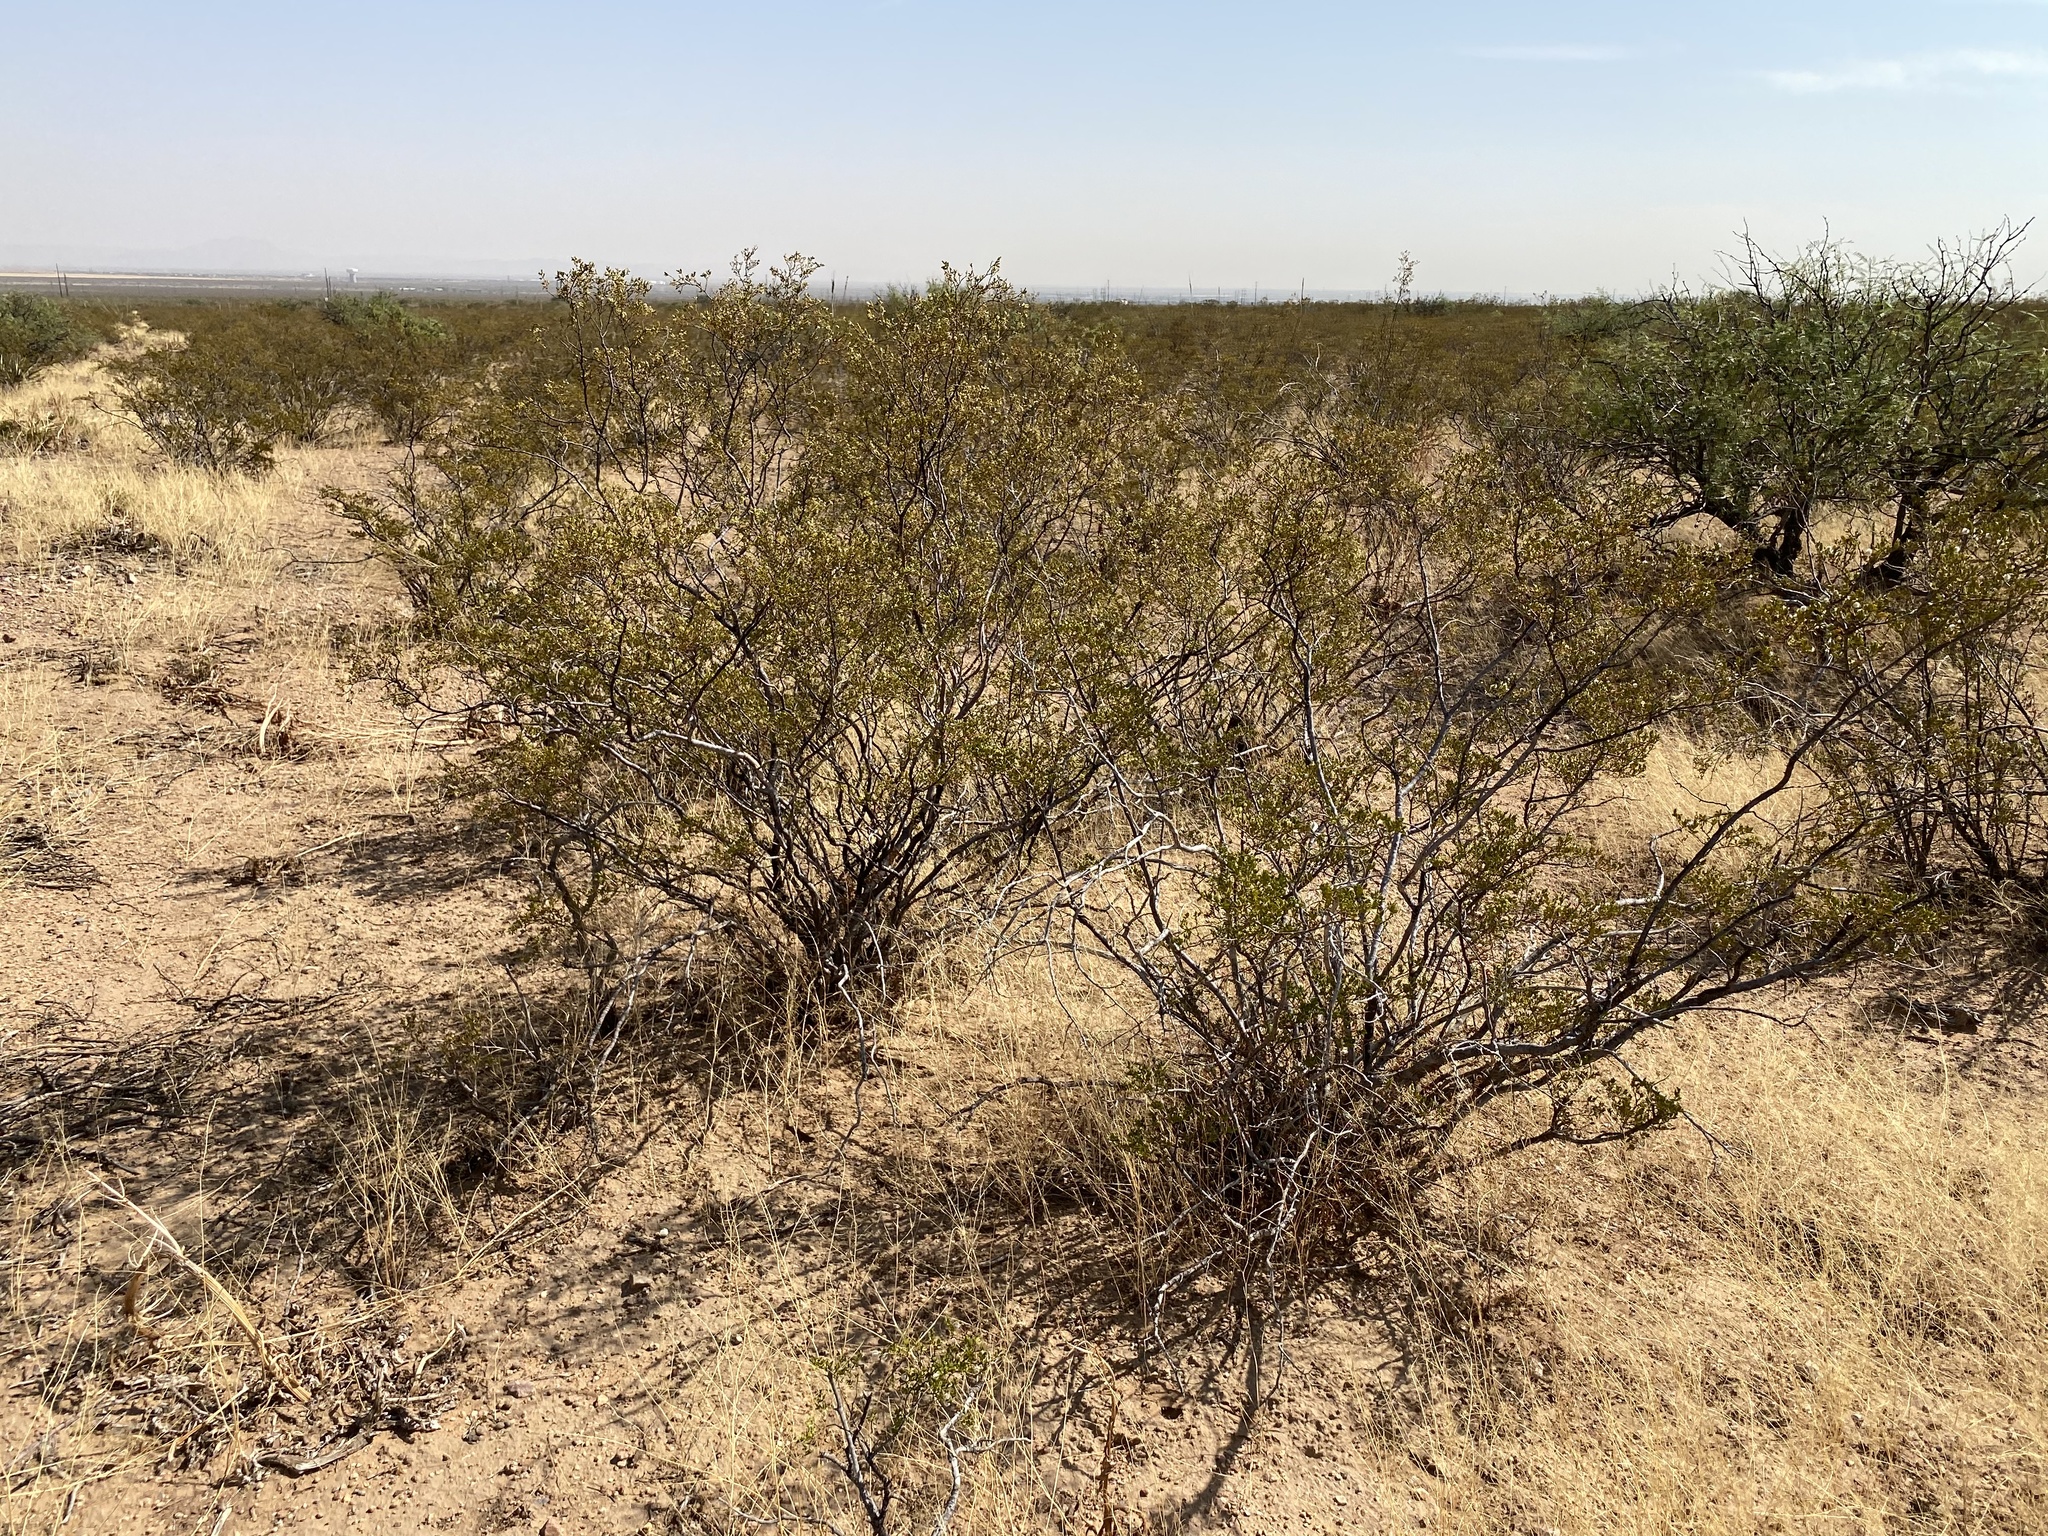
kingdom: Plantae
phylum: Tracheophyta
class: Magnoliopsida
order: Zygophyllales
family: Zygophyllaceae
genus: Larrea
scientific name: Larrea tridentata
